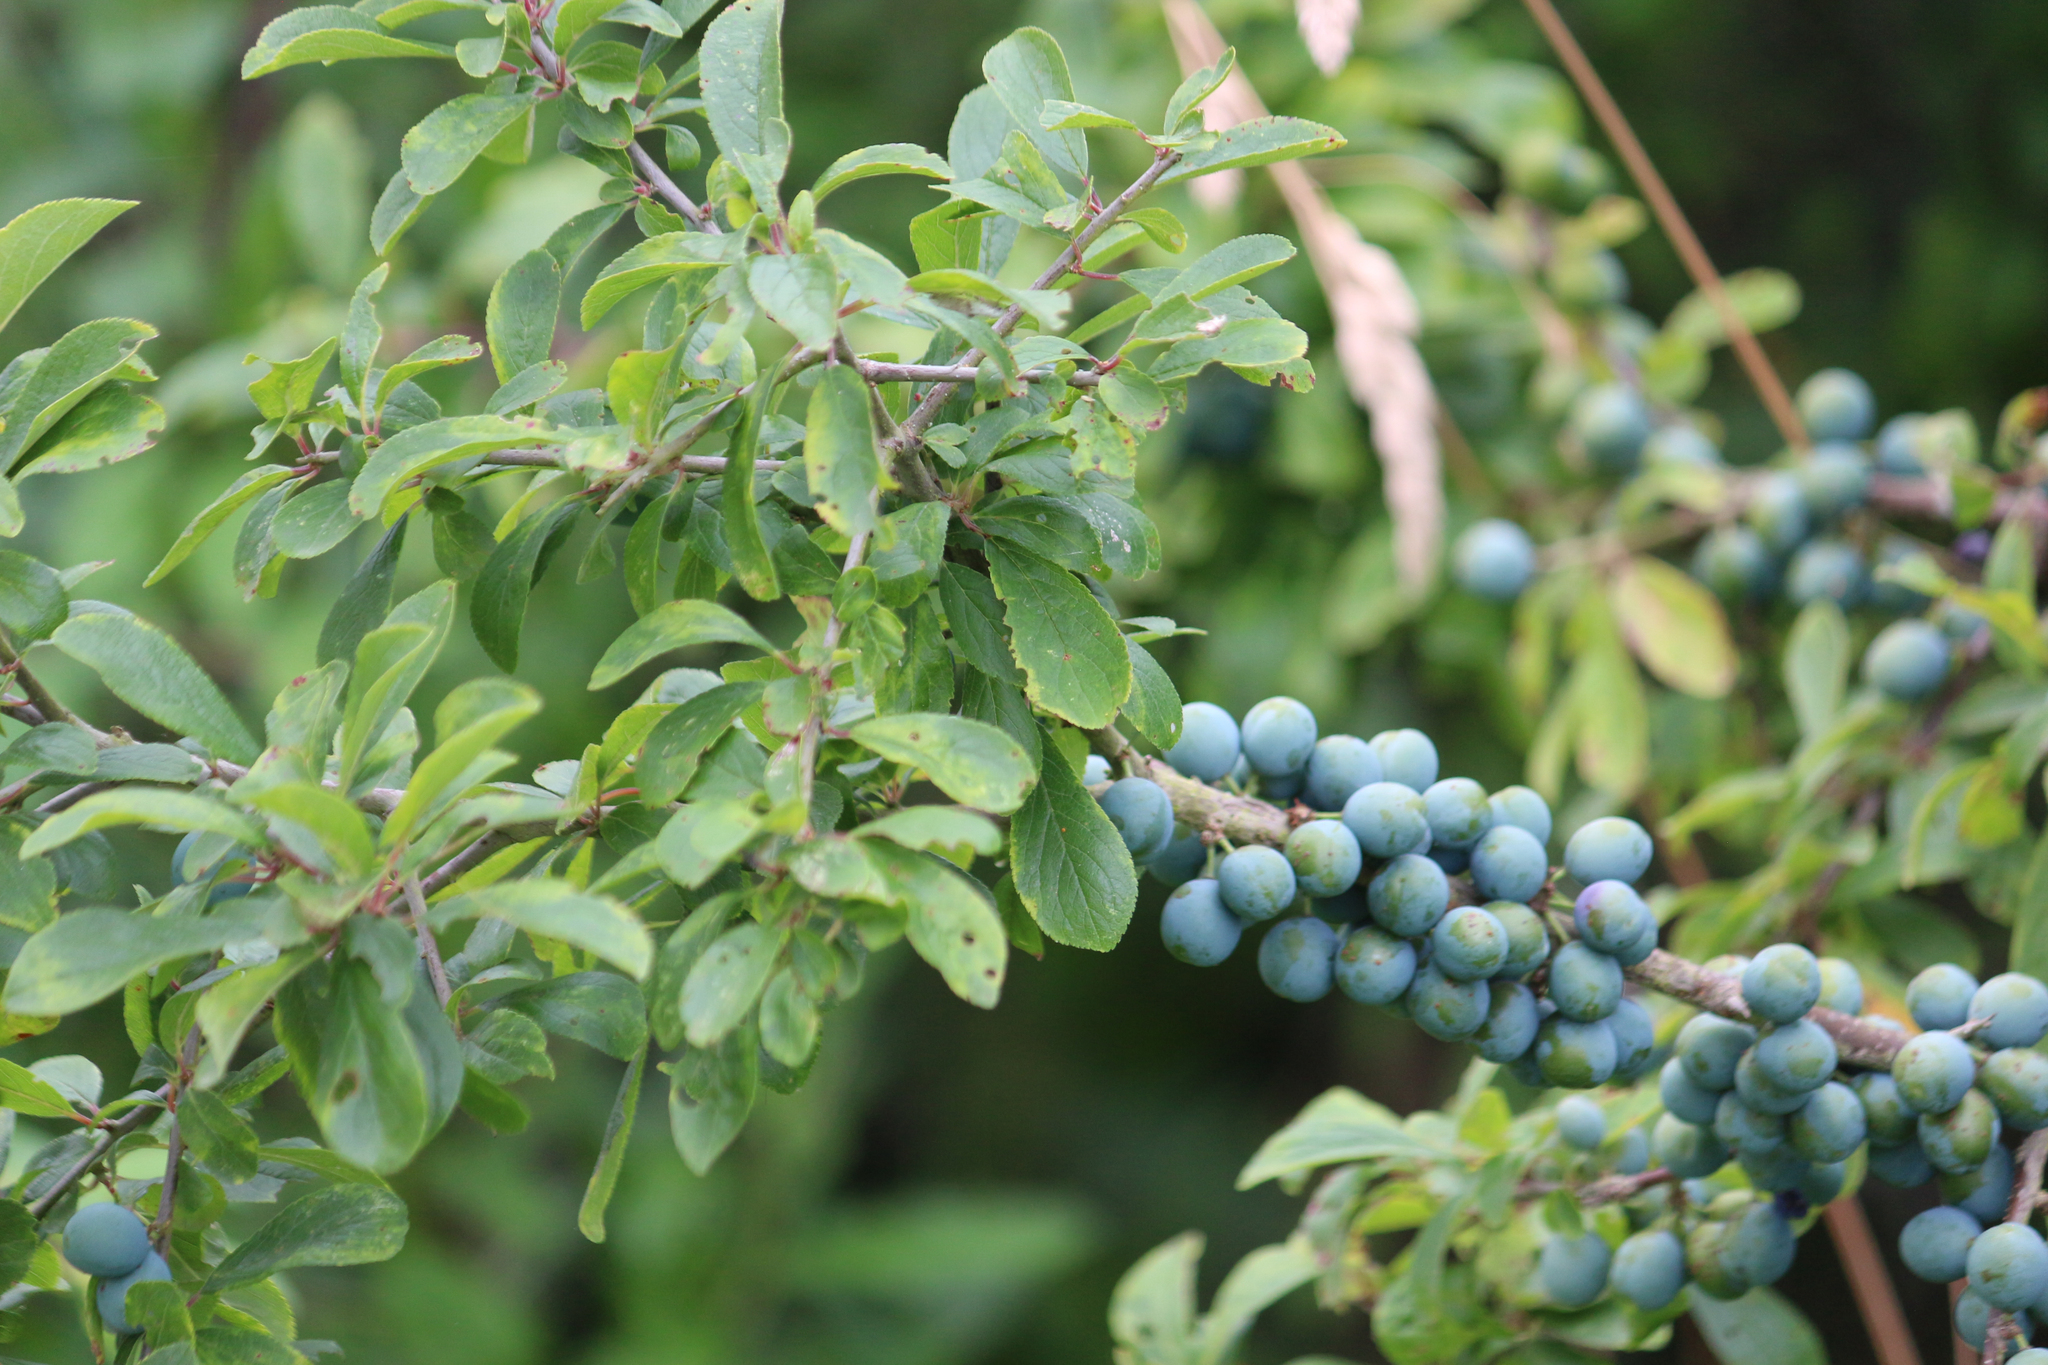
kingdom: Plantae
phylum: Tracheophyta
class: Magnoliopsida
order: Rosales
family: Rosaceae
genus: Prunus
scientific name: Prunus spinosa
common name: Blackthorn
